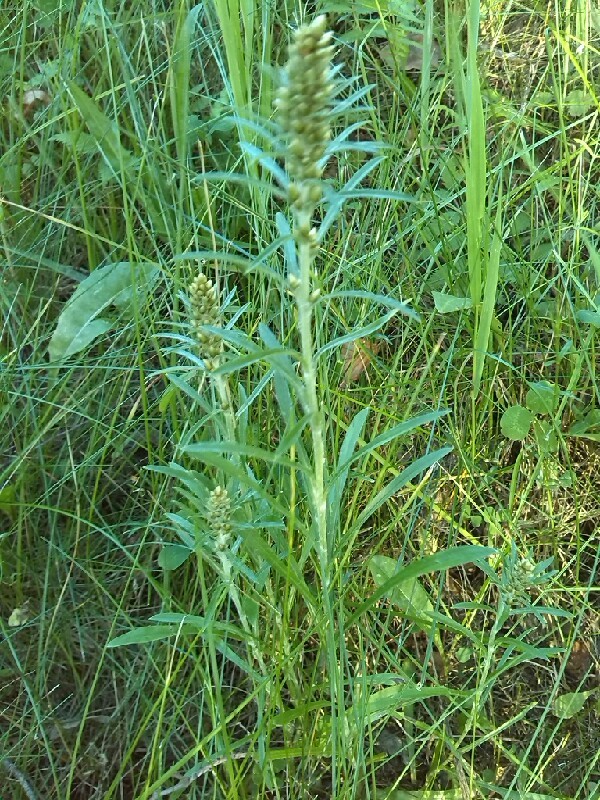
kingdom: Plantae
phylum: Tracheophyta
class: Magnoliopsida
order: Asterales
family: Asteraceae
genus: Omalotheca
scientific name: Omalotheca sylvatica
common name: Heath cudweed
